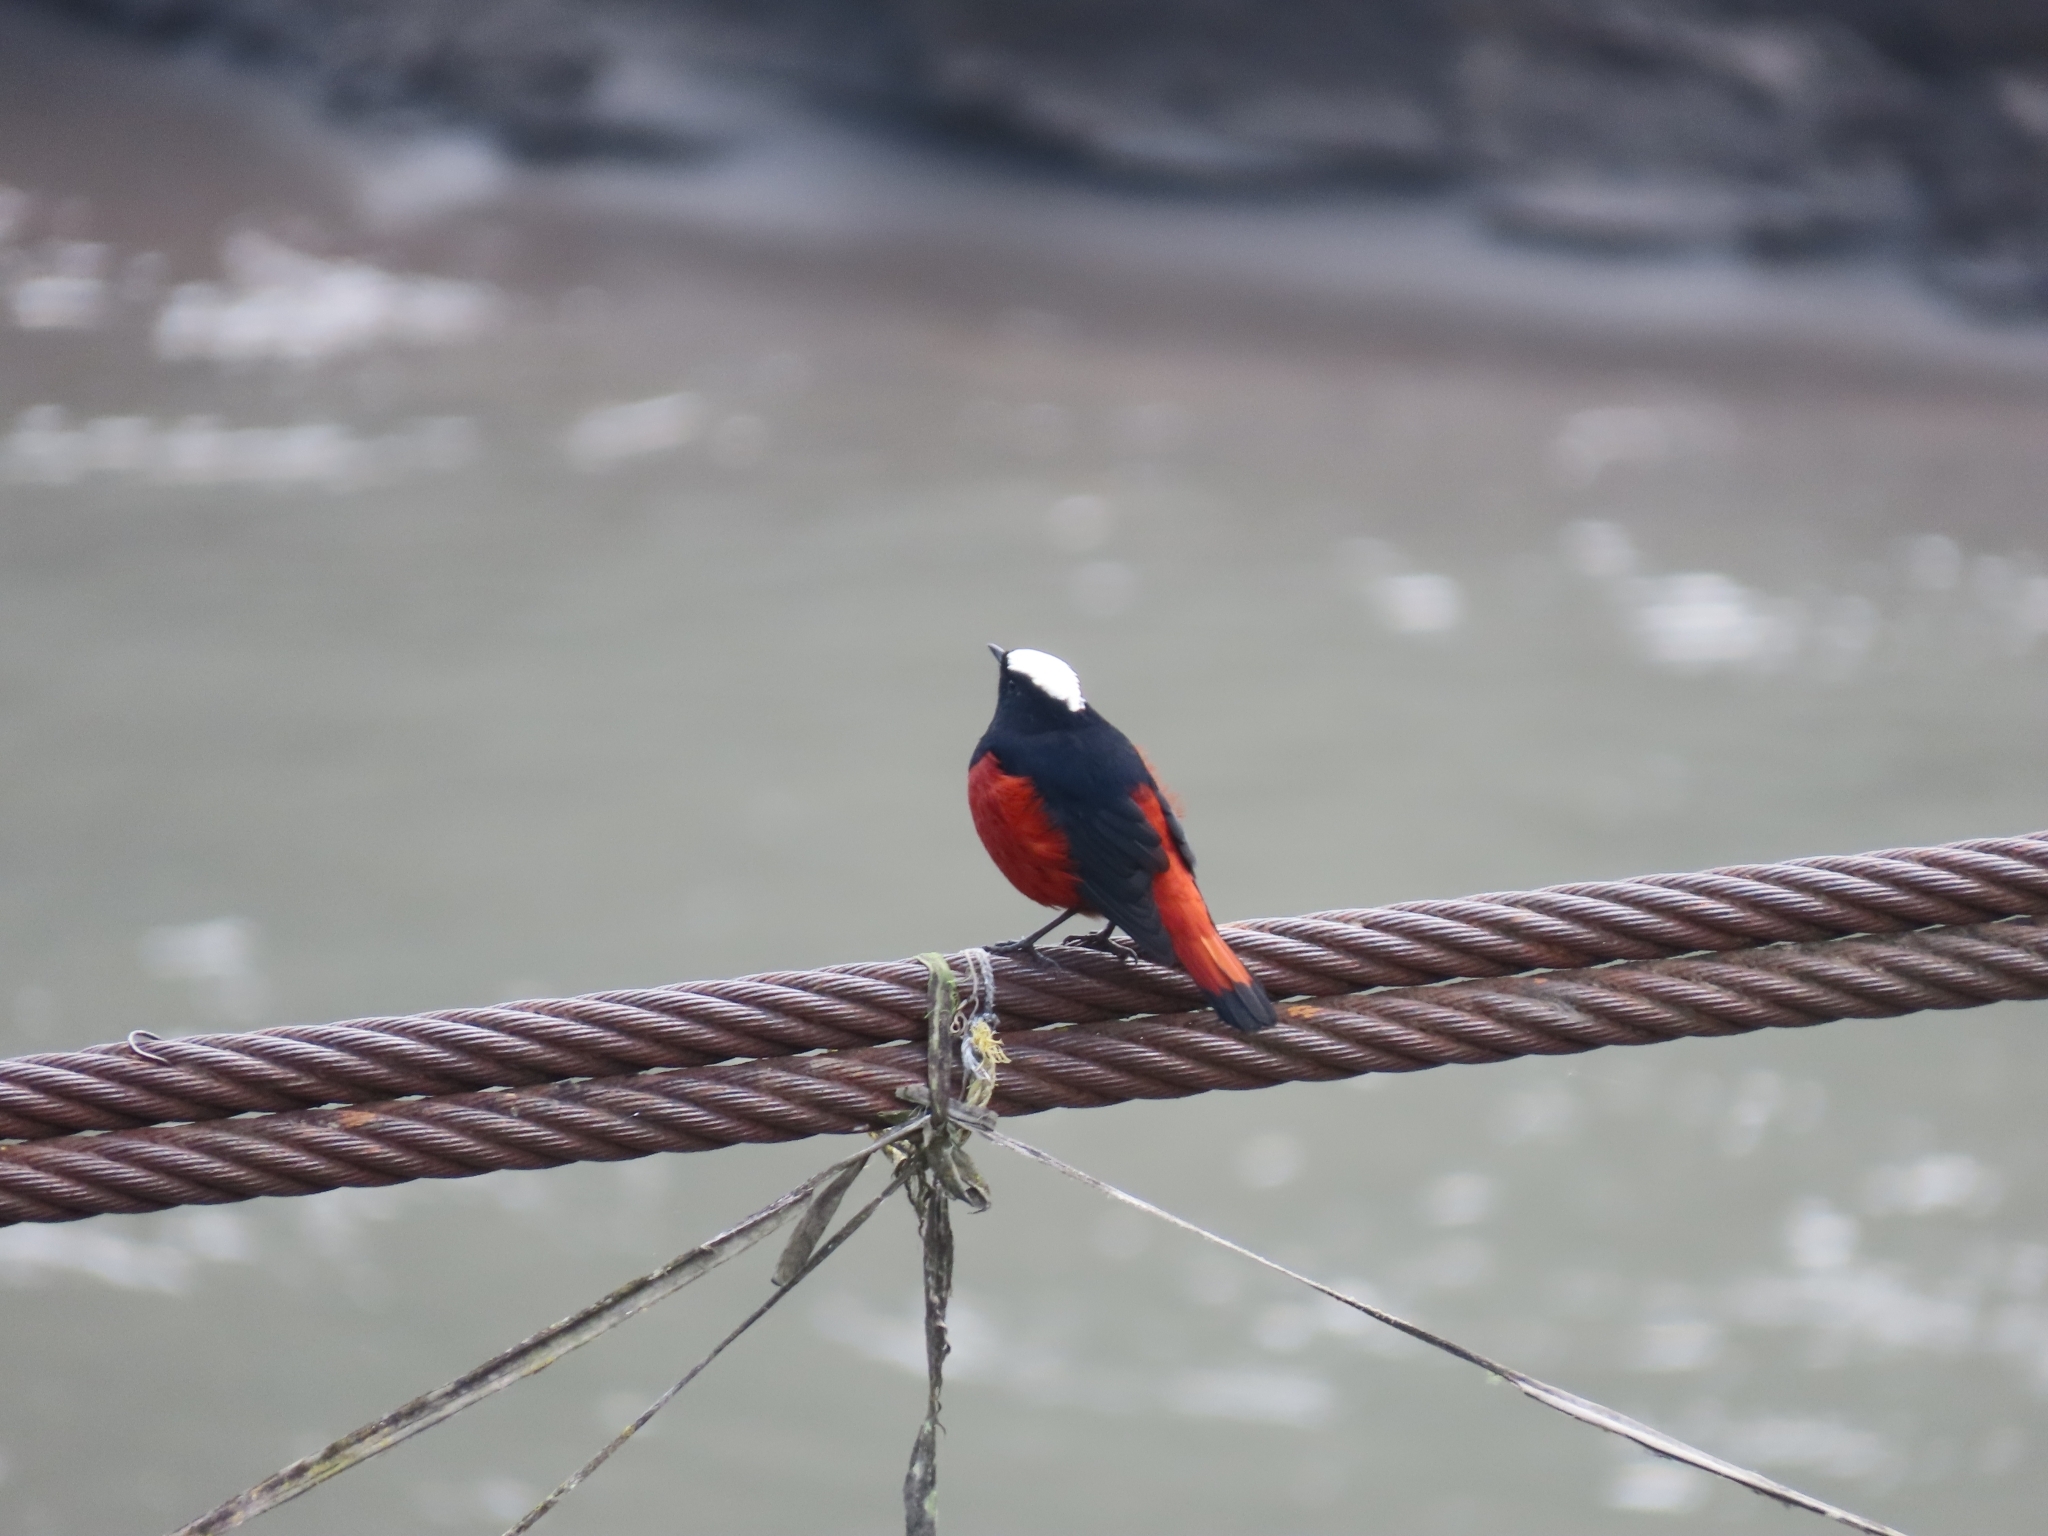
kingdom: Animalia
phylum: Chordata
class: Aves
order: Passeriformes
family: Muscicapidae
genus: Chaimarrornis
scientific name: Chaimarrornis leucocephalus
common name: White-capped redstart
